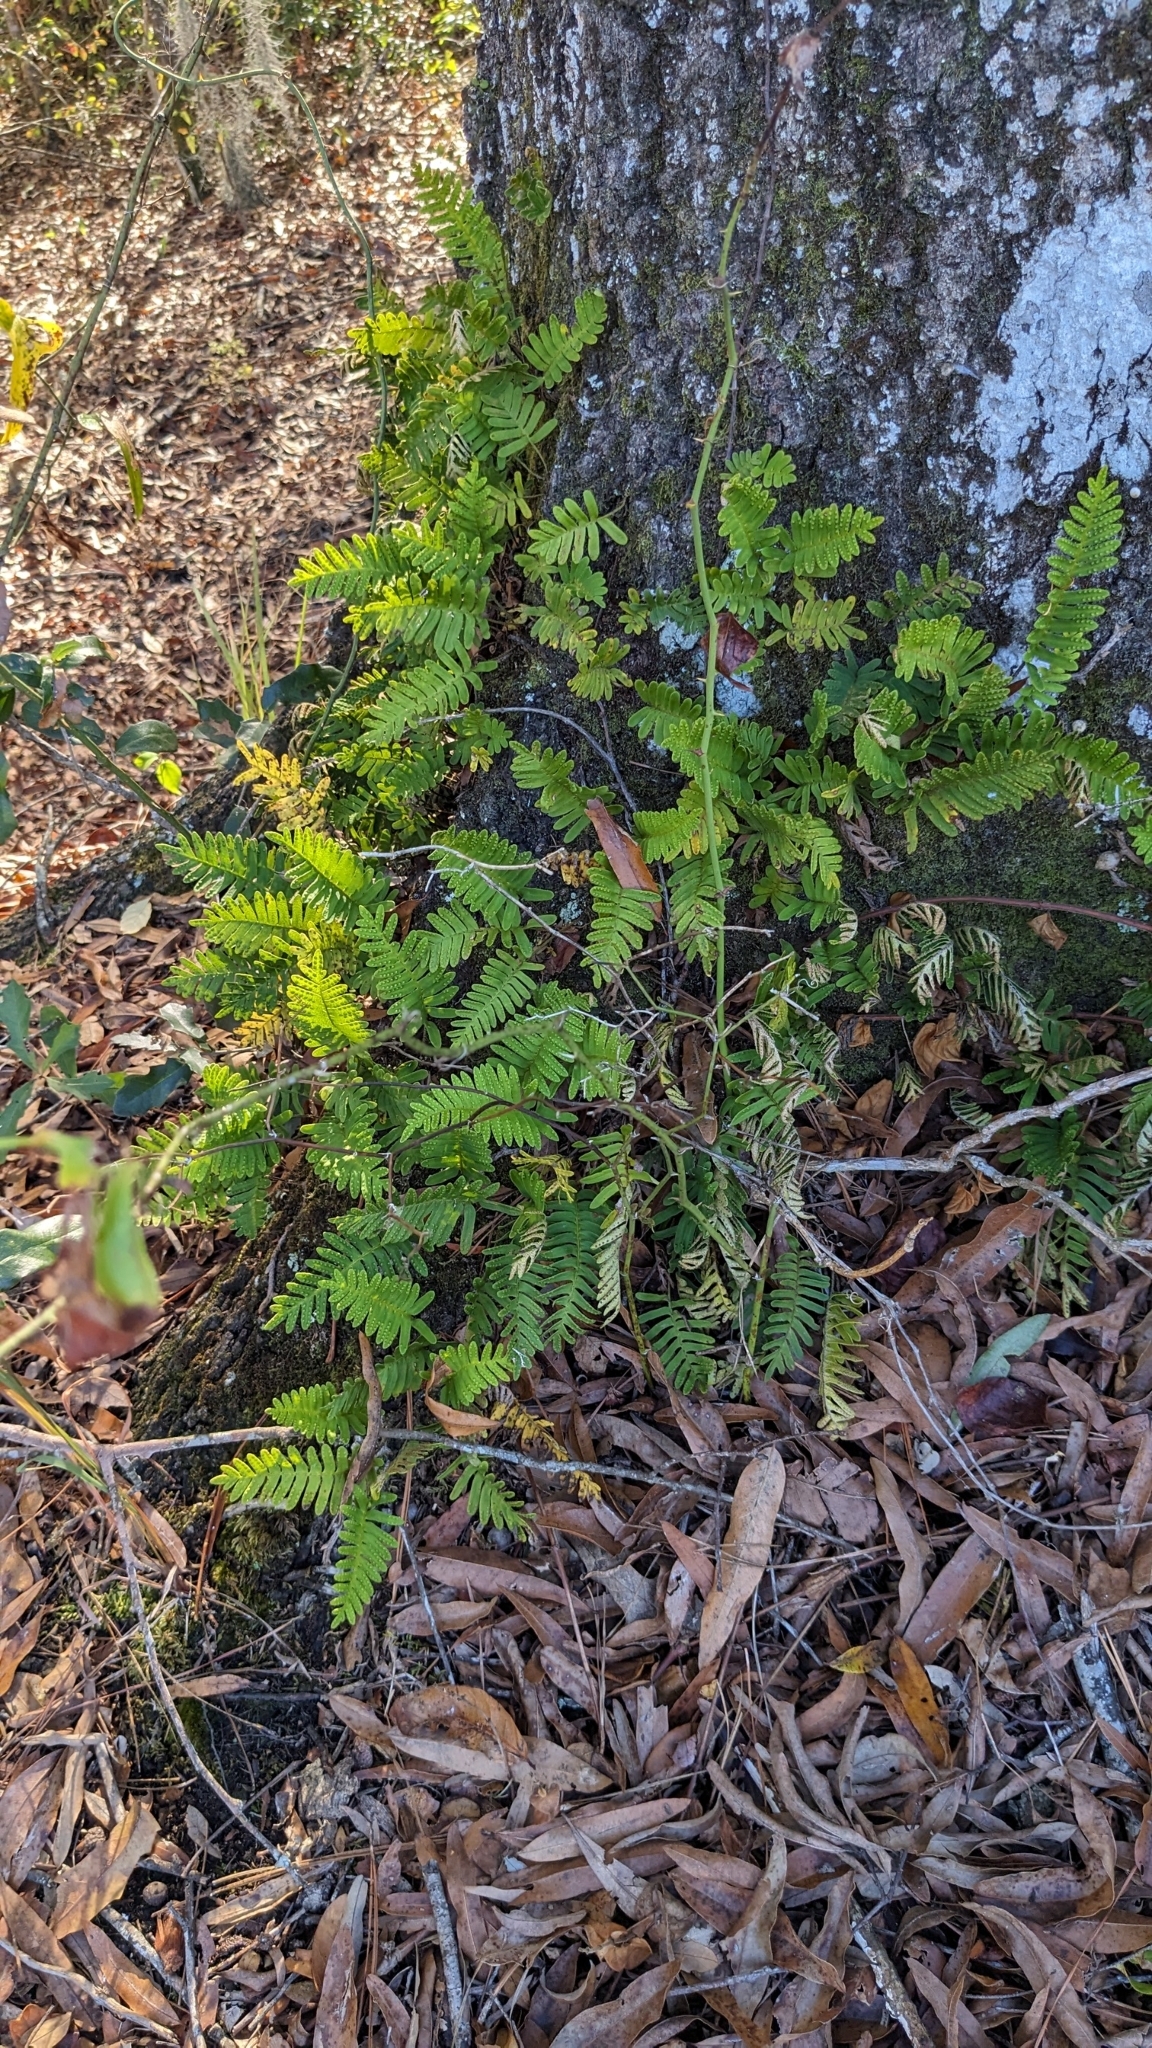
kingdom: Plantae
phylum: Tracheophyta
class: Polypodiopsida
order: Polypodiales
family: Polypodiaceae
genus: Pleopeltis
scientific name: Pleopeltis michauxiana
